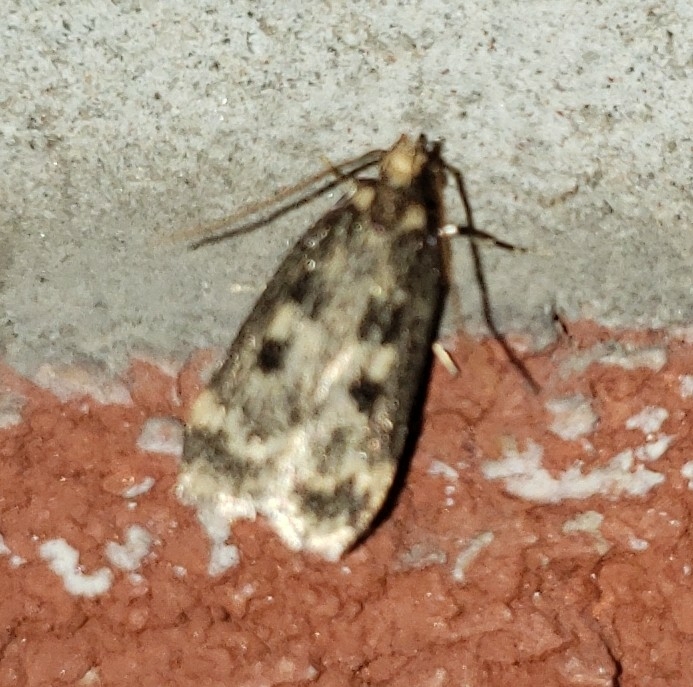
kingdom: Animalia
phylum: Arthropoda
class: Insecta
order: Lepidoptera
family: Lecithoceridae
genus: Martyringa
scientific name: Martyringa latipennis
